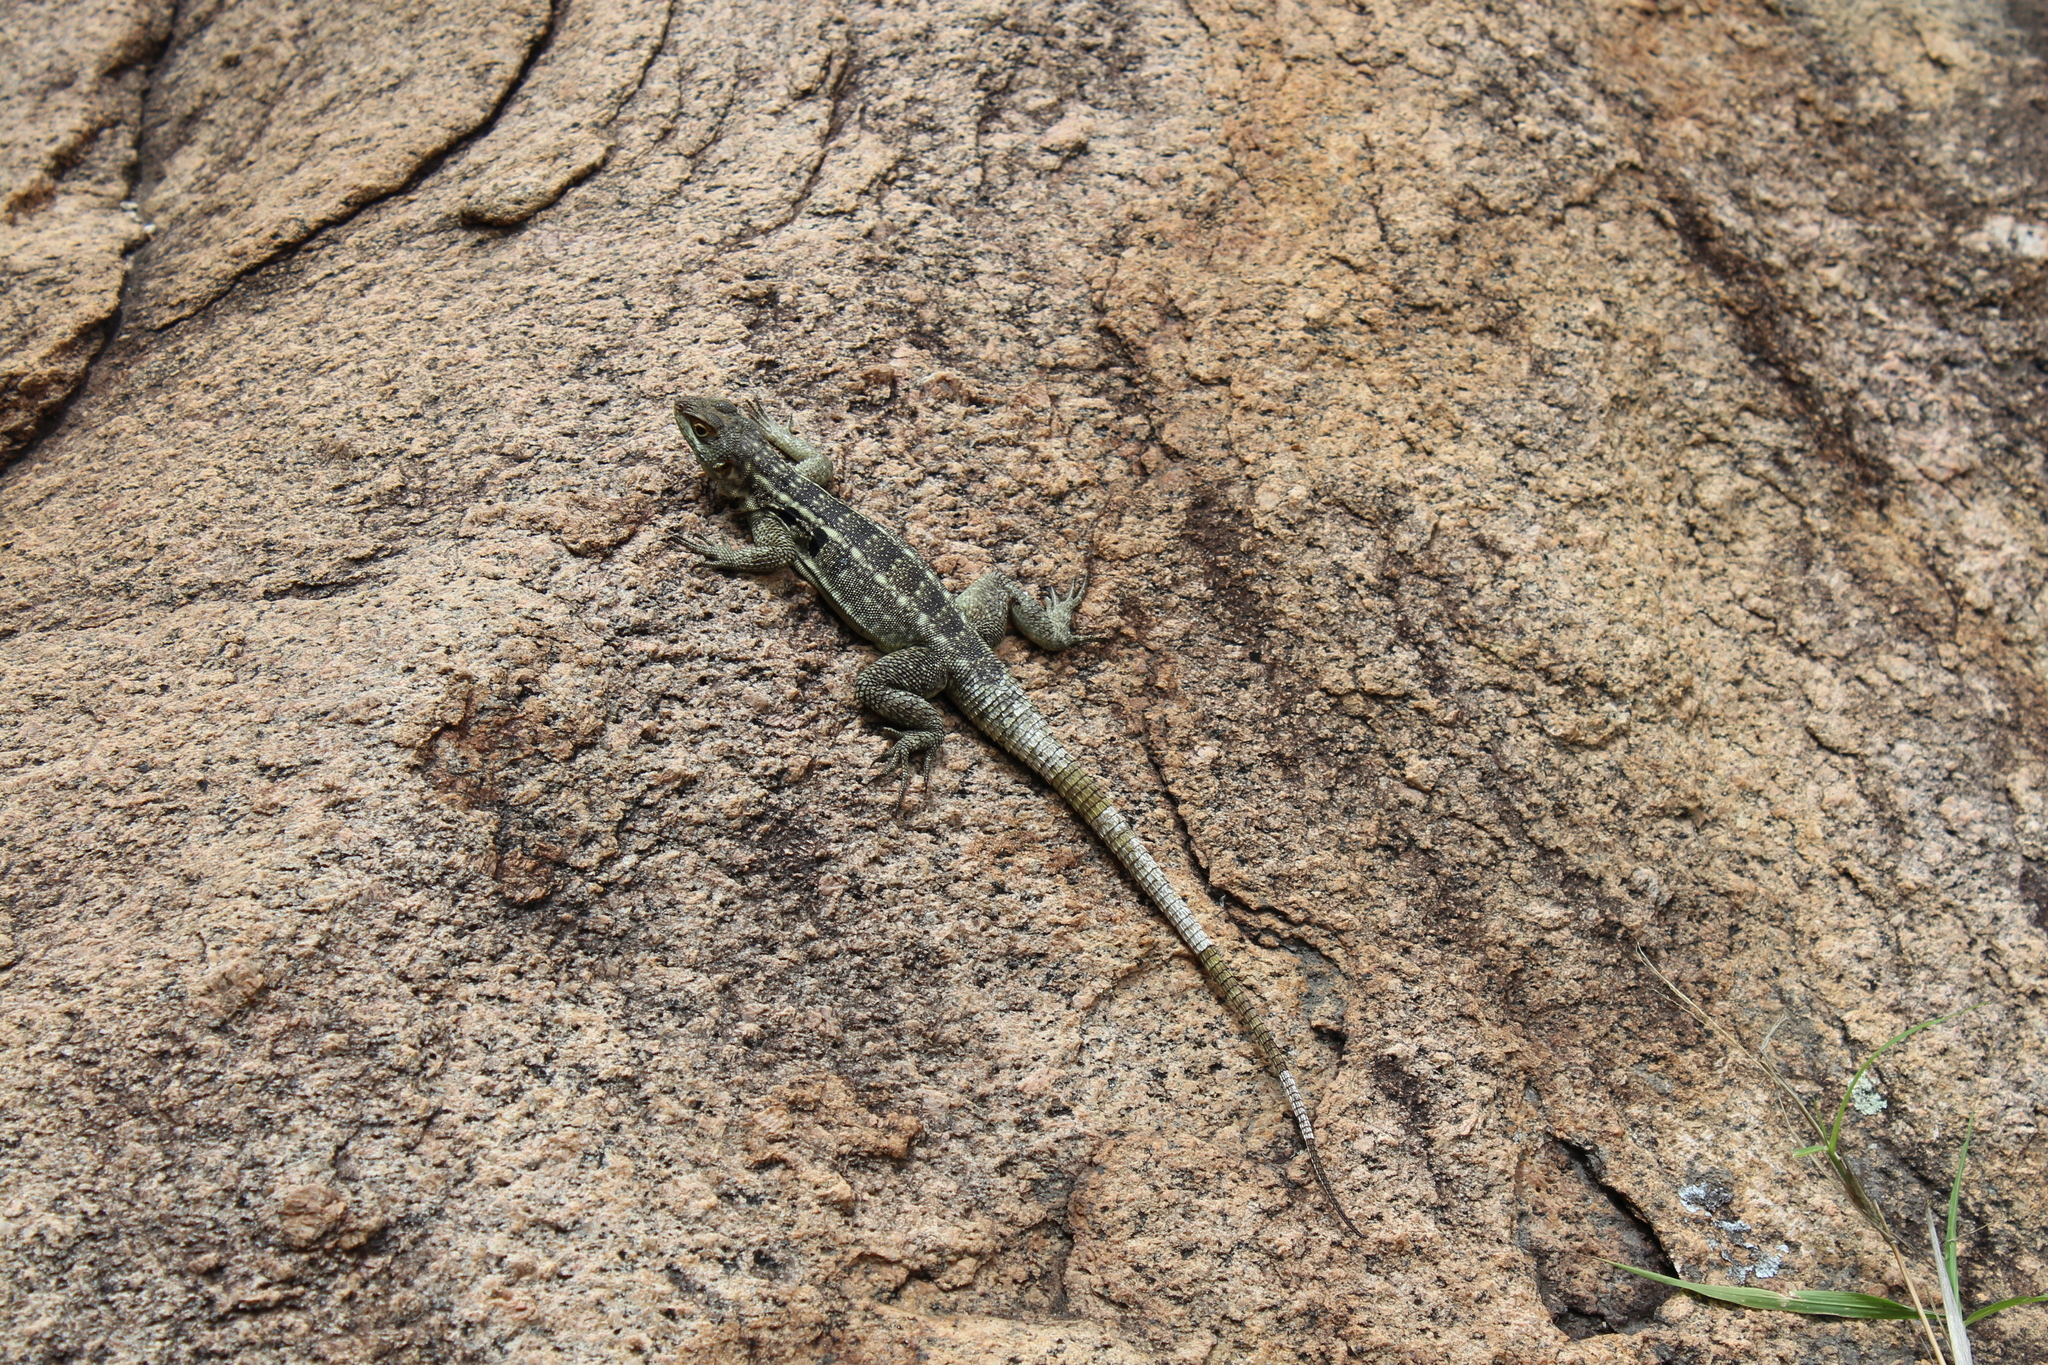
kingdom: Animalia
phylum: Chordata
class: Squamata
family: Opluridae
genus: Oplurus
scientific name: Oplurus quadrimaculatus
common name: Duméril's madagascar swift
